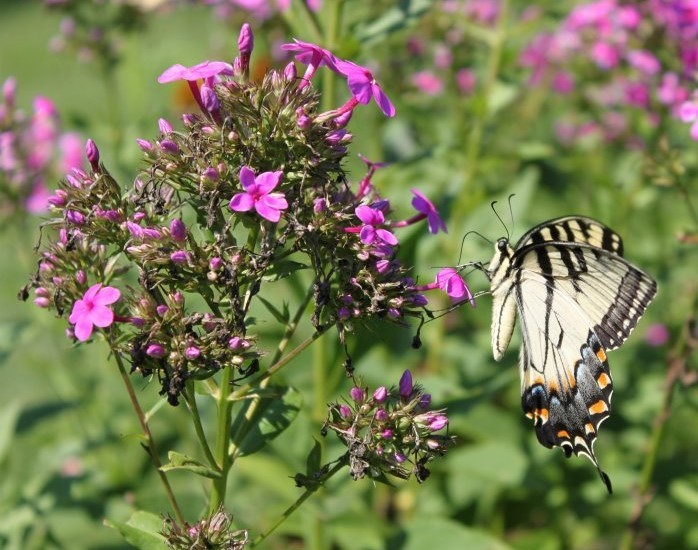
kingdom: Animalia
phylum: Arthropoda
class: Insecta
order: Lepidoptera
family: Papilionidae
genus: Papilio
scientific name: Papilio glaucus
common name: Tiger swallowtail
